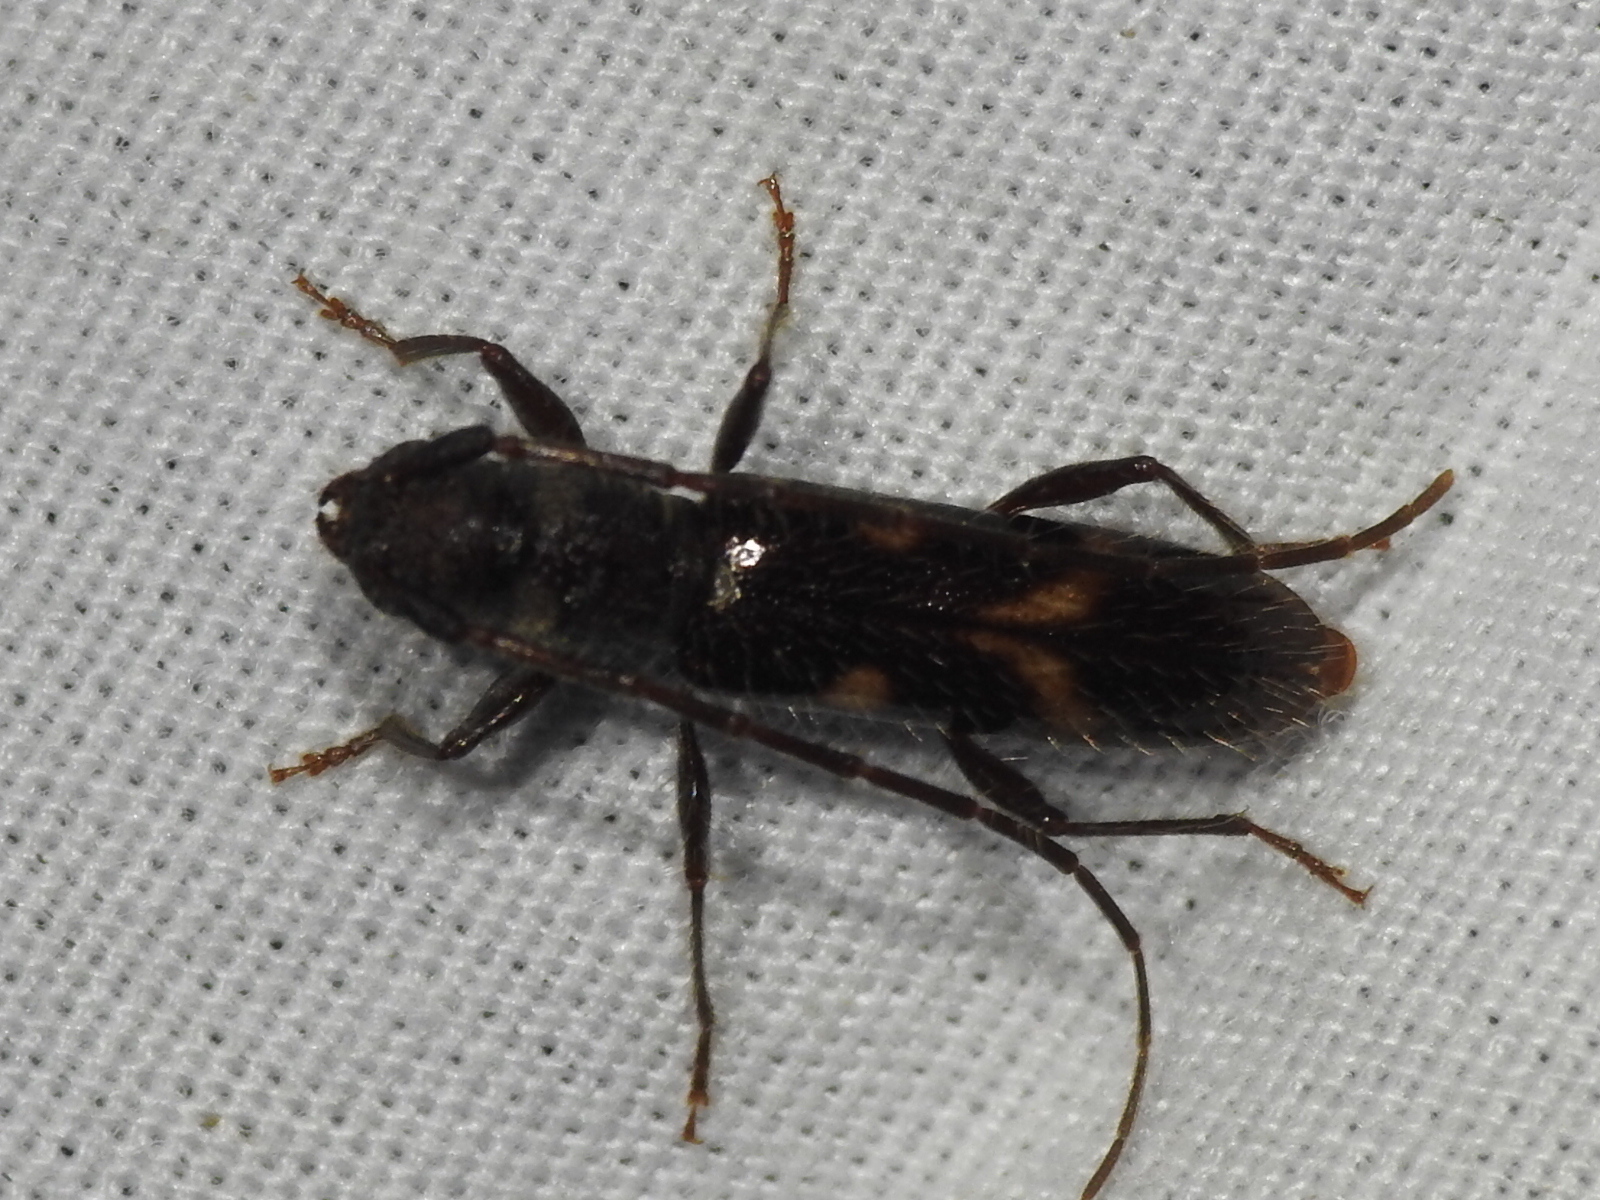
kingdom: Animalia
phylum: Arthropoda
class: Insecta
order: Coleoptera
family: Cerambycidae
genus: Heterachthes
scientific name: Heterachthes nobilis
